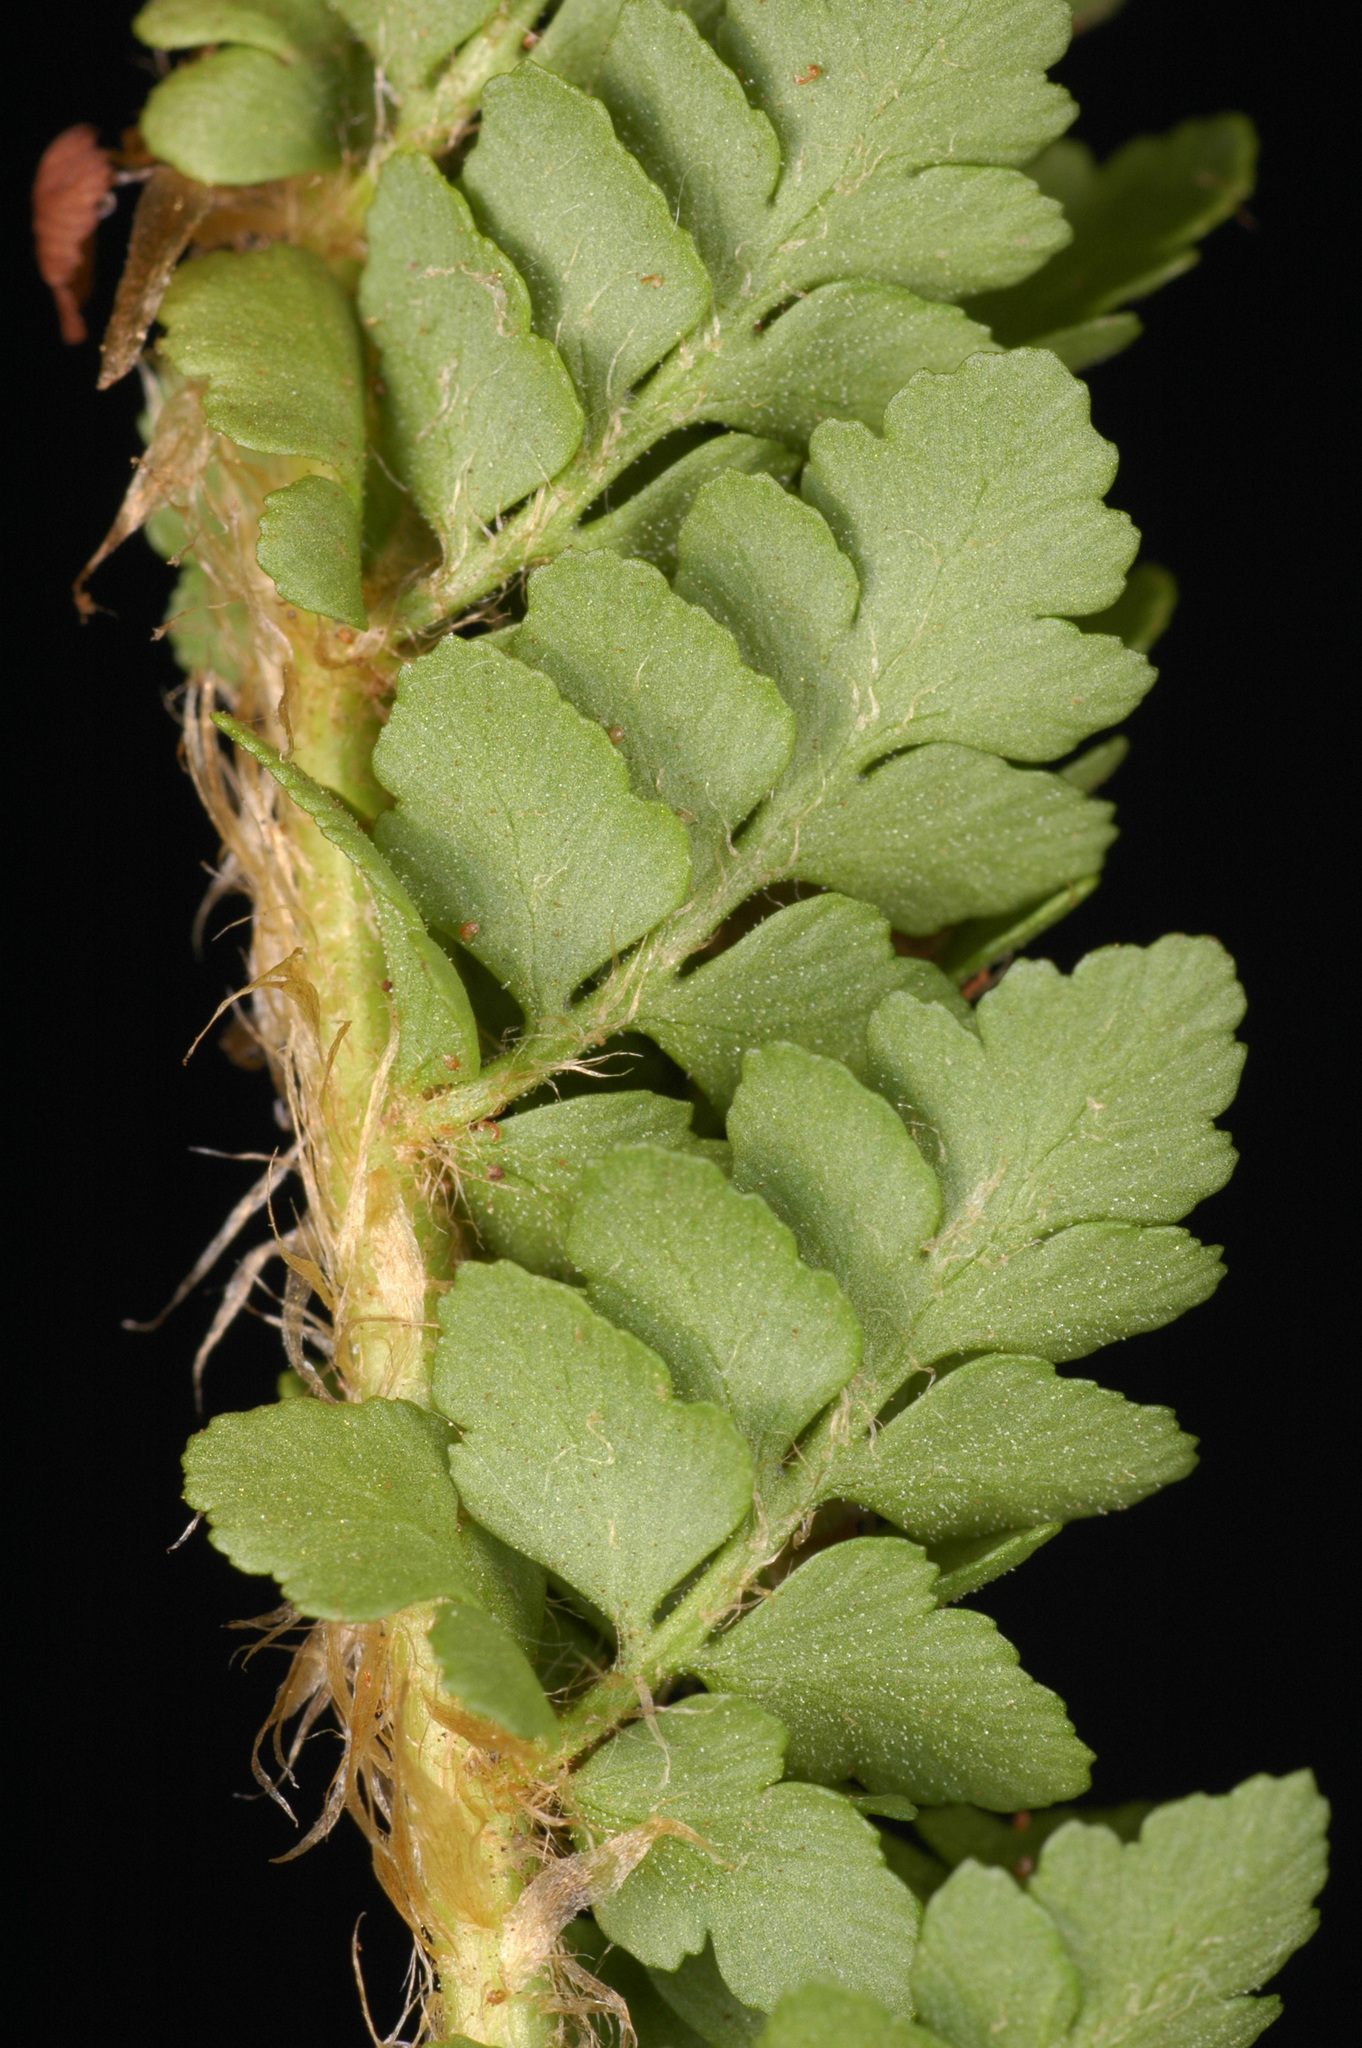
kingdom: Plantae
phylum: Tracheophyta
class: Polypodiopsida
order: Polypodiales
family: Dryopteridaceae
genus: Polystichum
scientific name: Polystichum lemmonii
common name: Lemmon's holly fern
